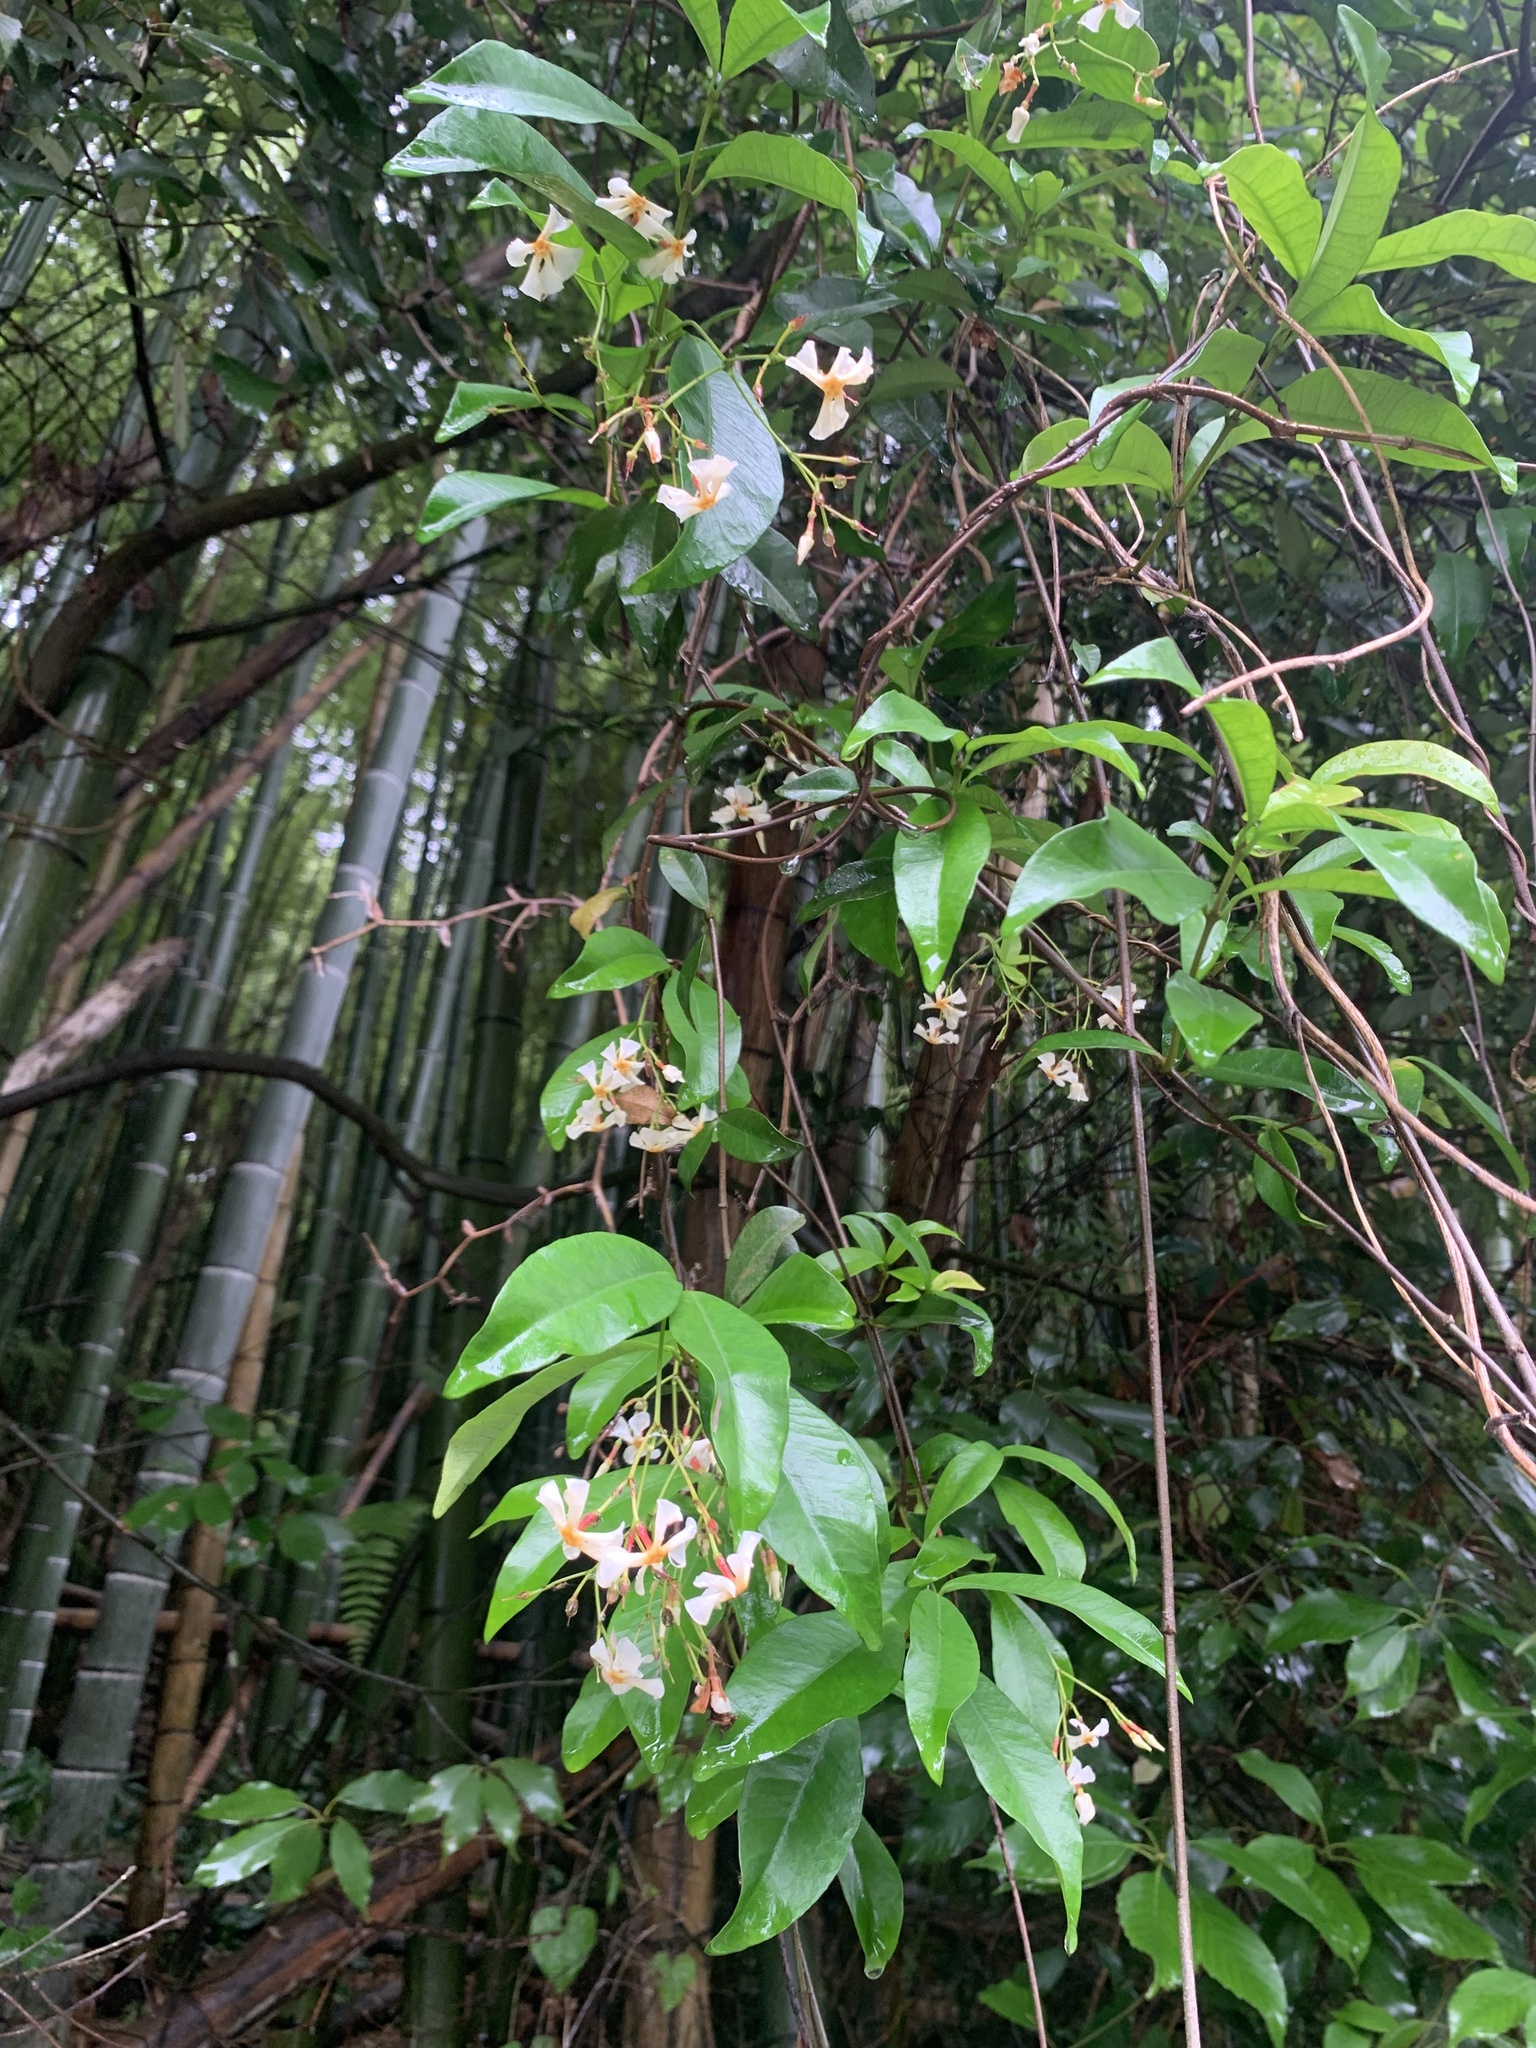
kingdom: Plantae
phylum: Tracheophyta
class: Magnoliopsida
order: Gentianales
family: Apocynaceae
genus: Trachelospermum
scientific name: Trachelospermum asiaticum
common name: Asiatic jasmine
